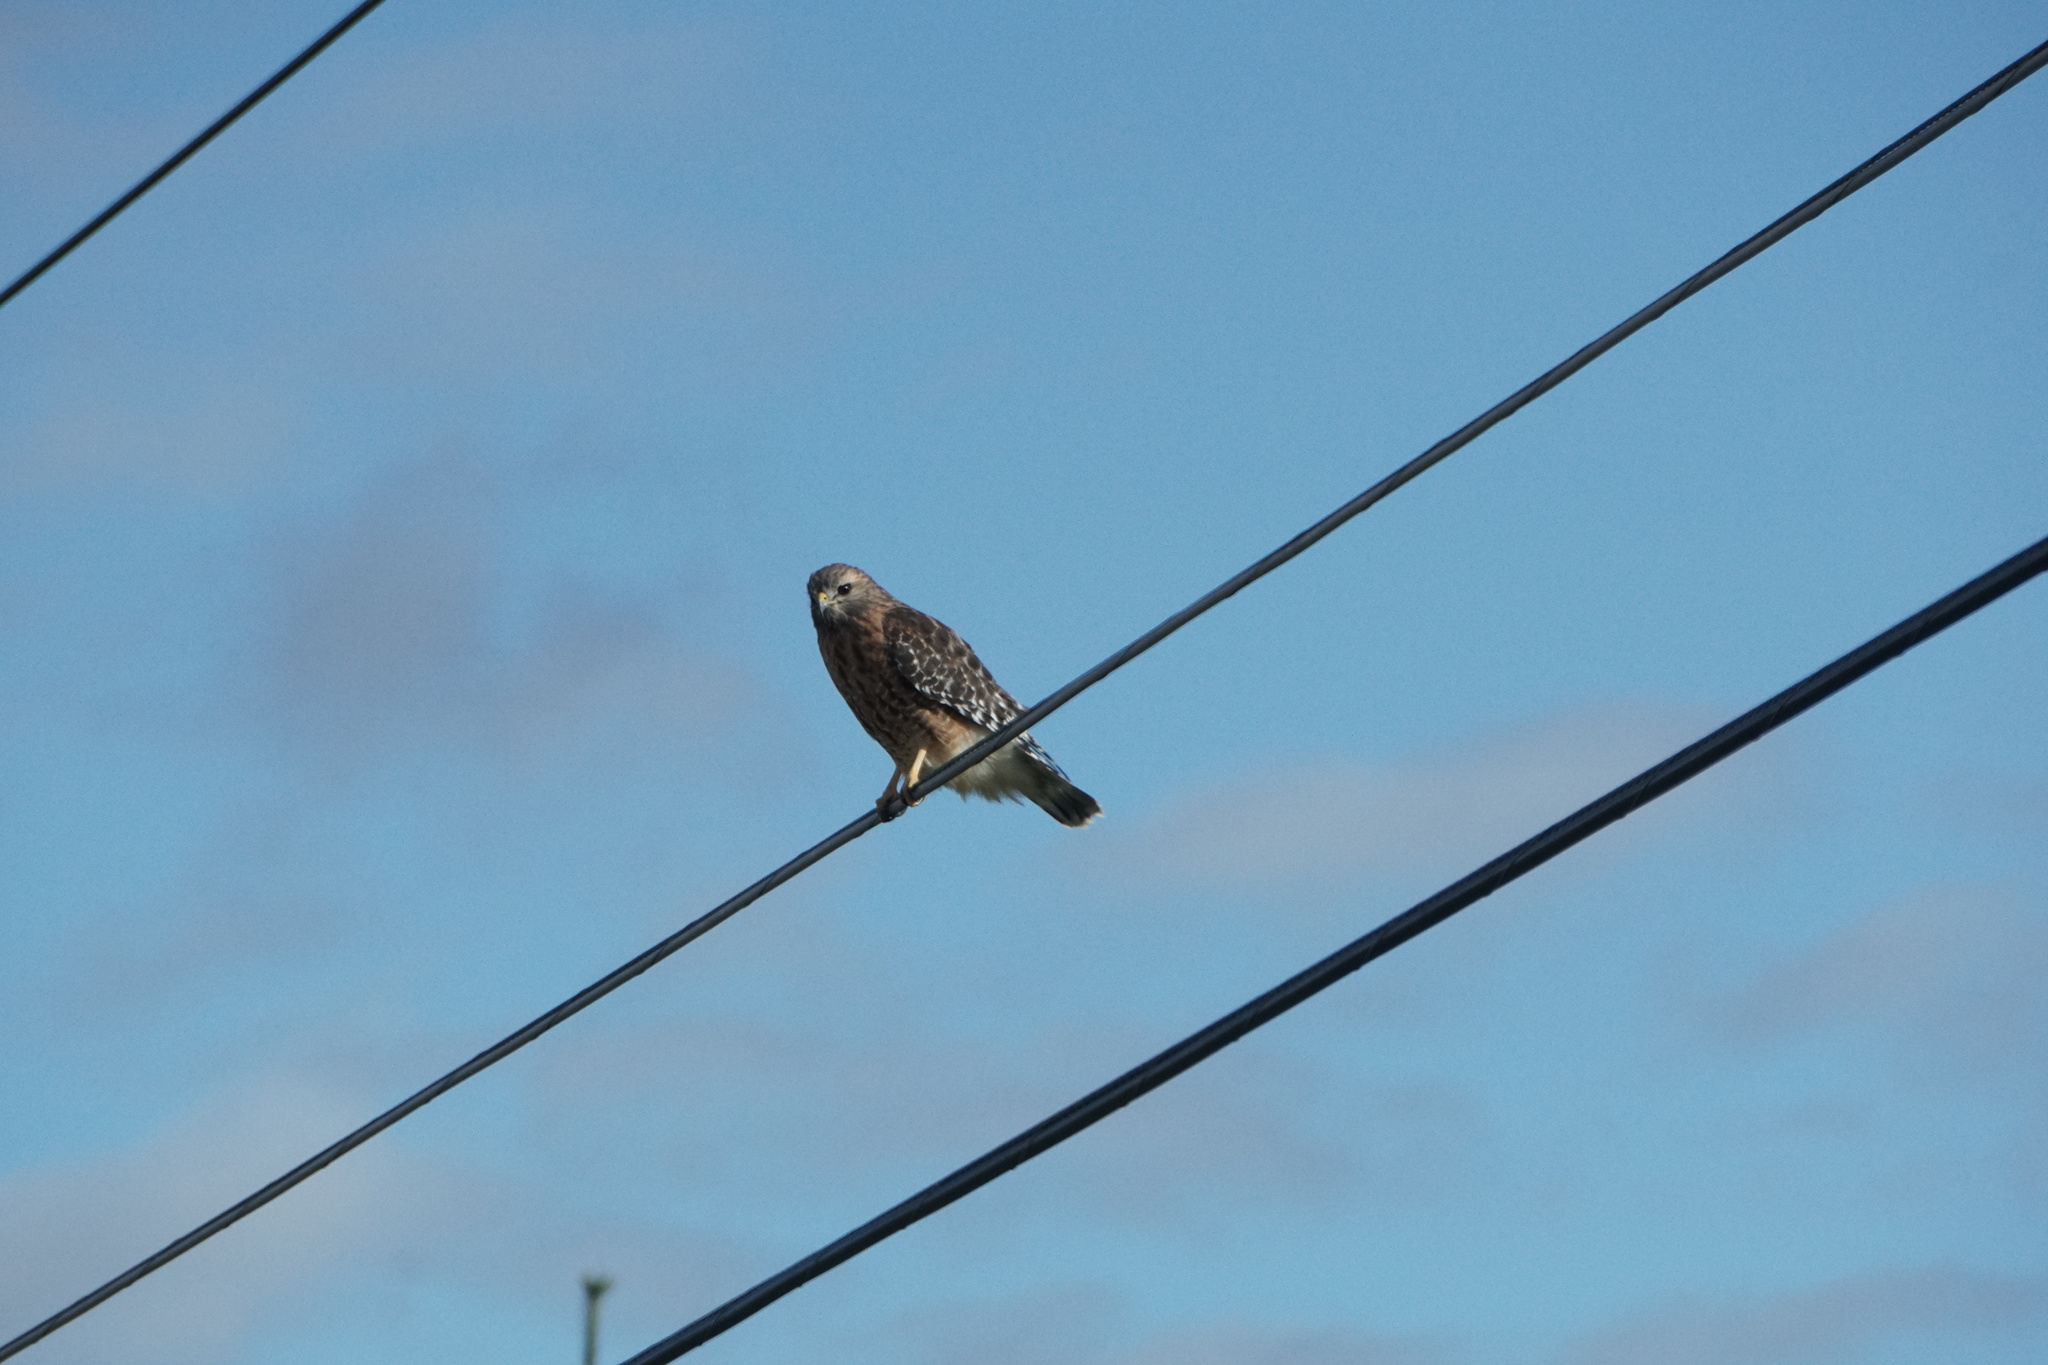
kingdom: Animalia
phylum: Chordata
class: Aves
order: Accipitriformes
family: Accipitridae
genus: Buteo
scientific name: Buteo lineatus
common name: Red-shouldered hawk
